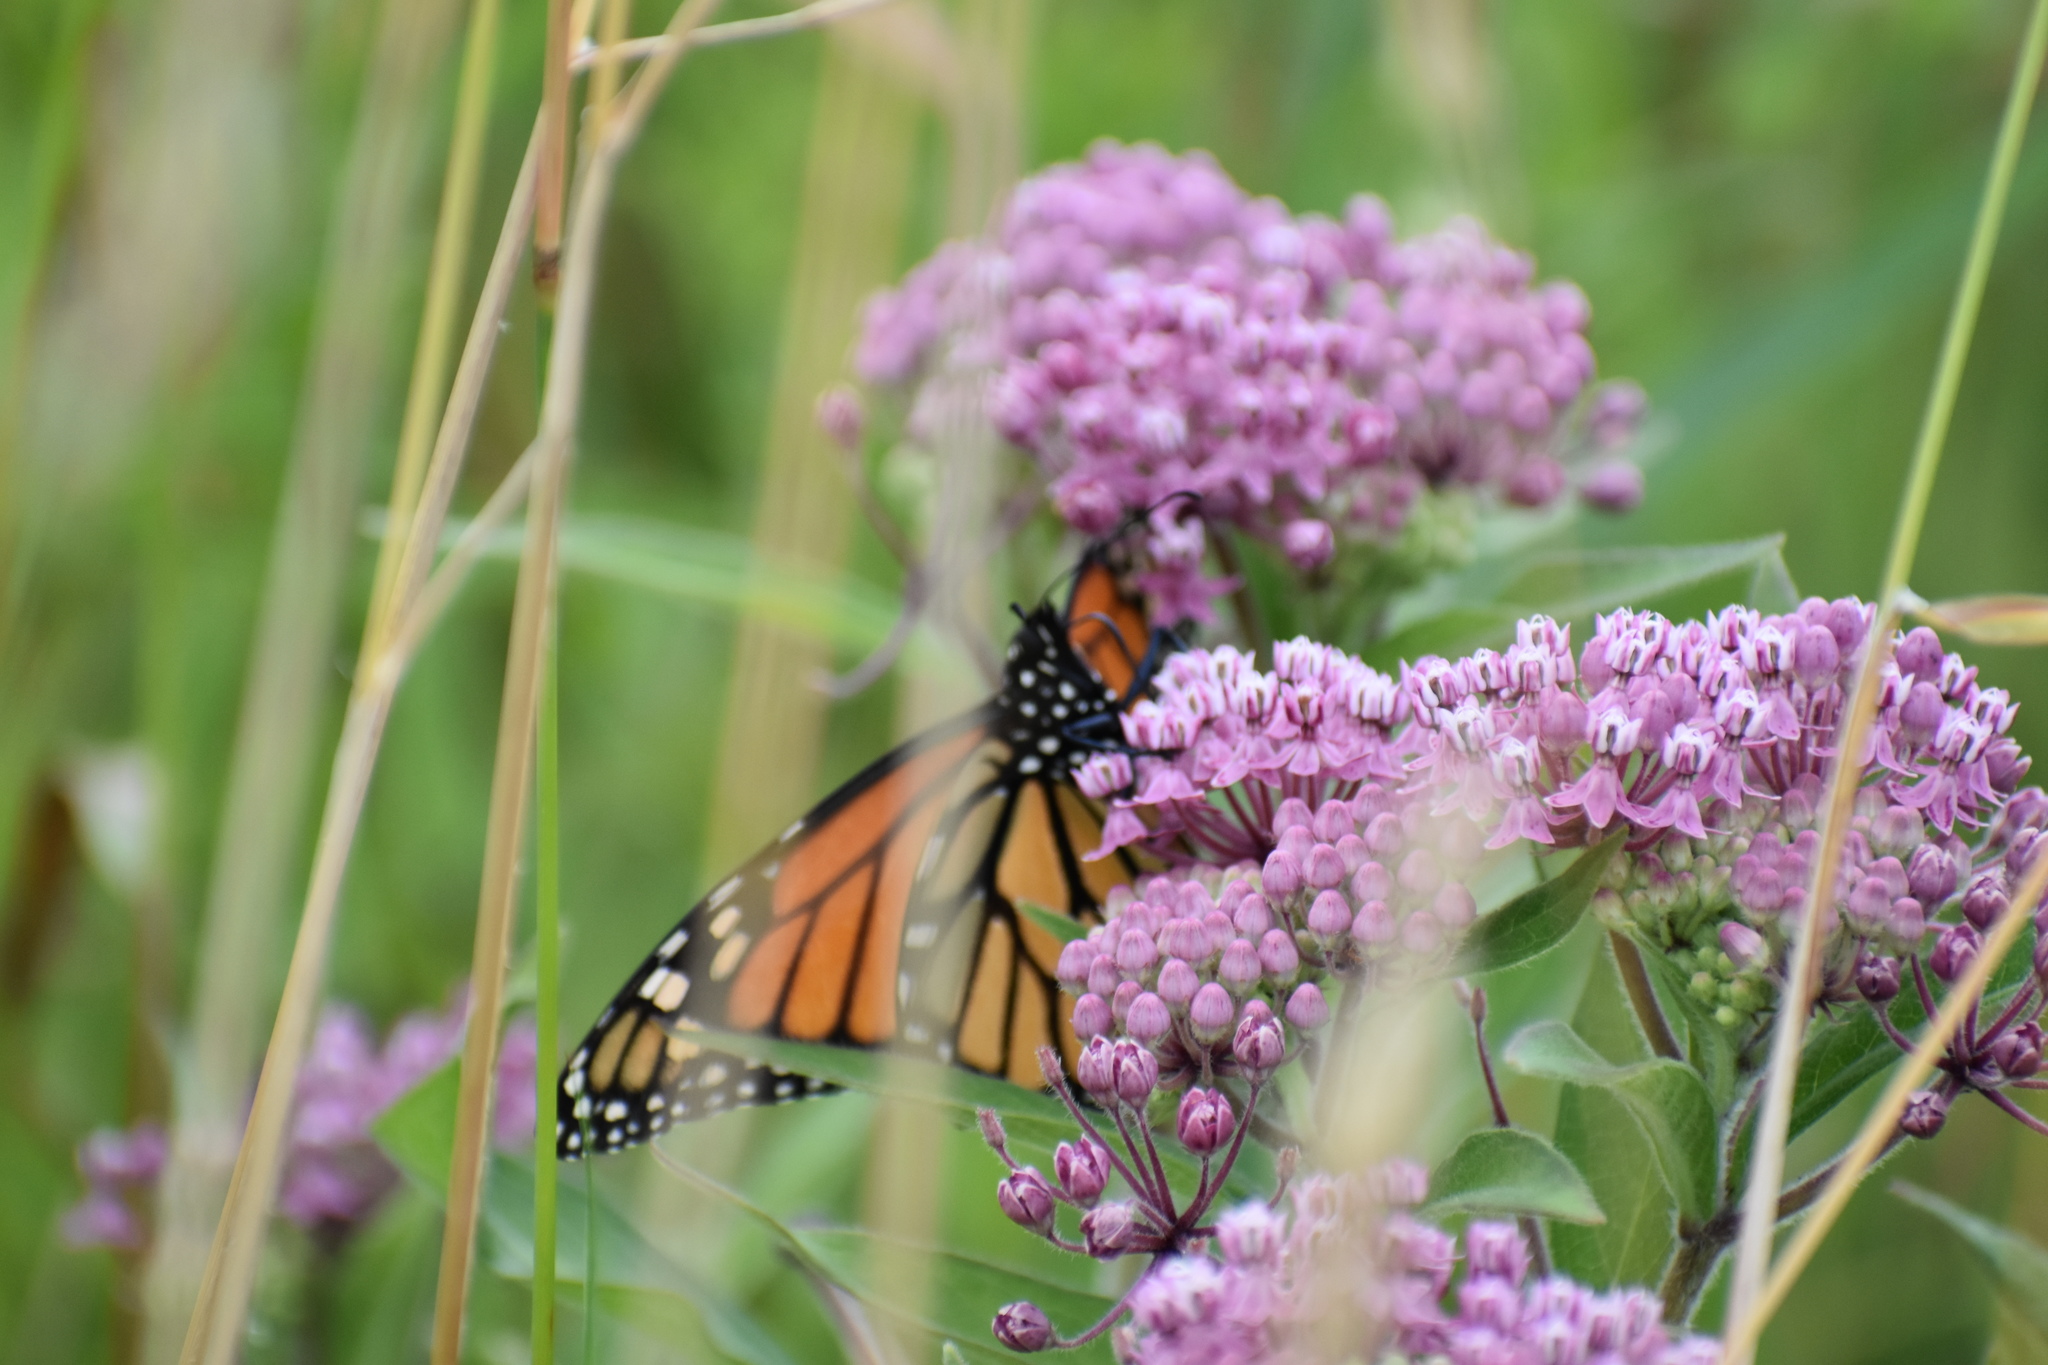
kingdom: Animalia
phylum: Arthropoda
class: Insecta
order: Lepidoptera
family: Nymphalidae
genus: Danaus
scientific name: Danaus plexippus
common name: Monarch
